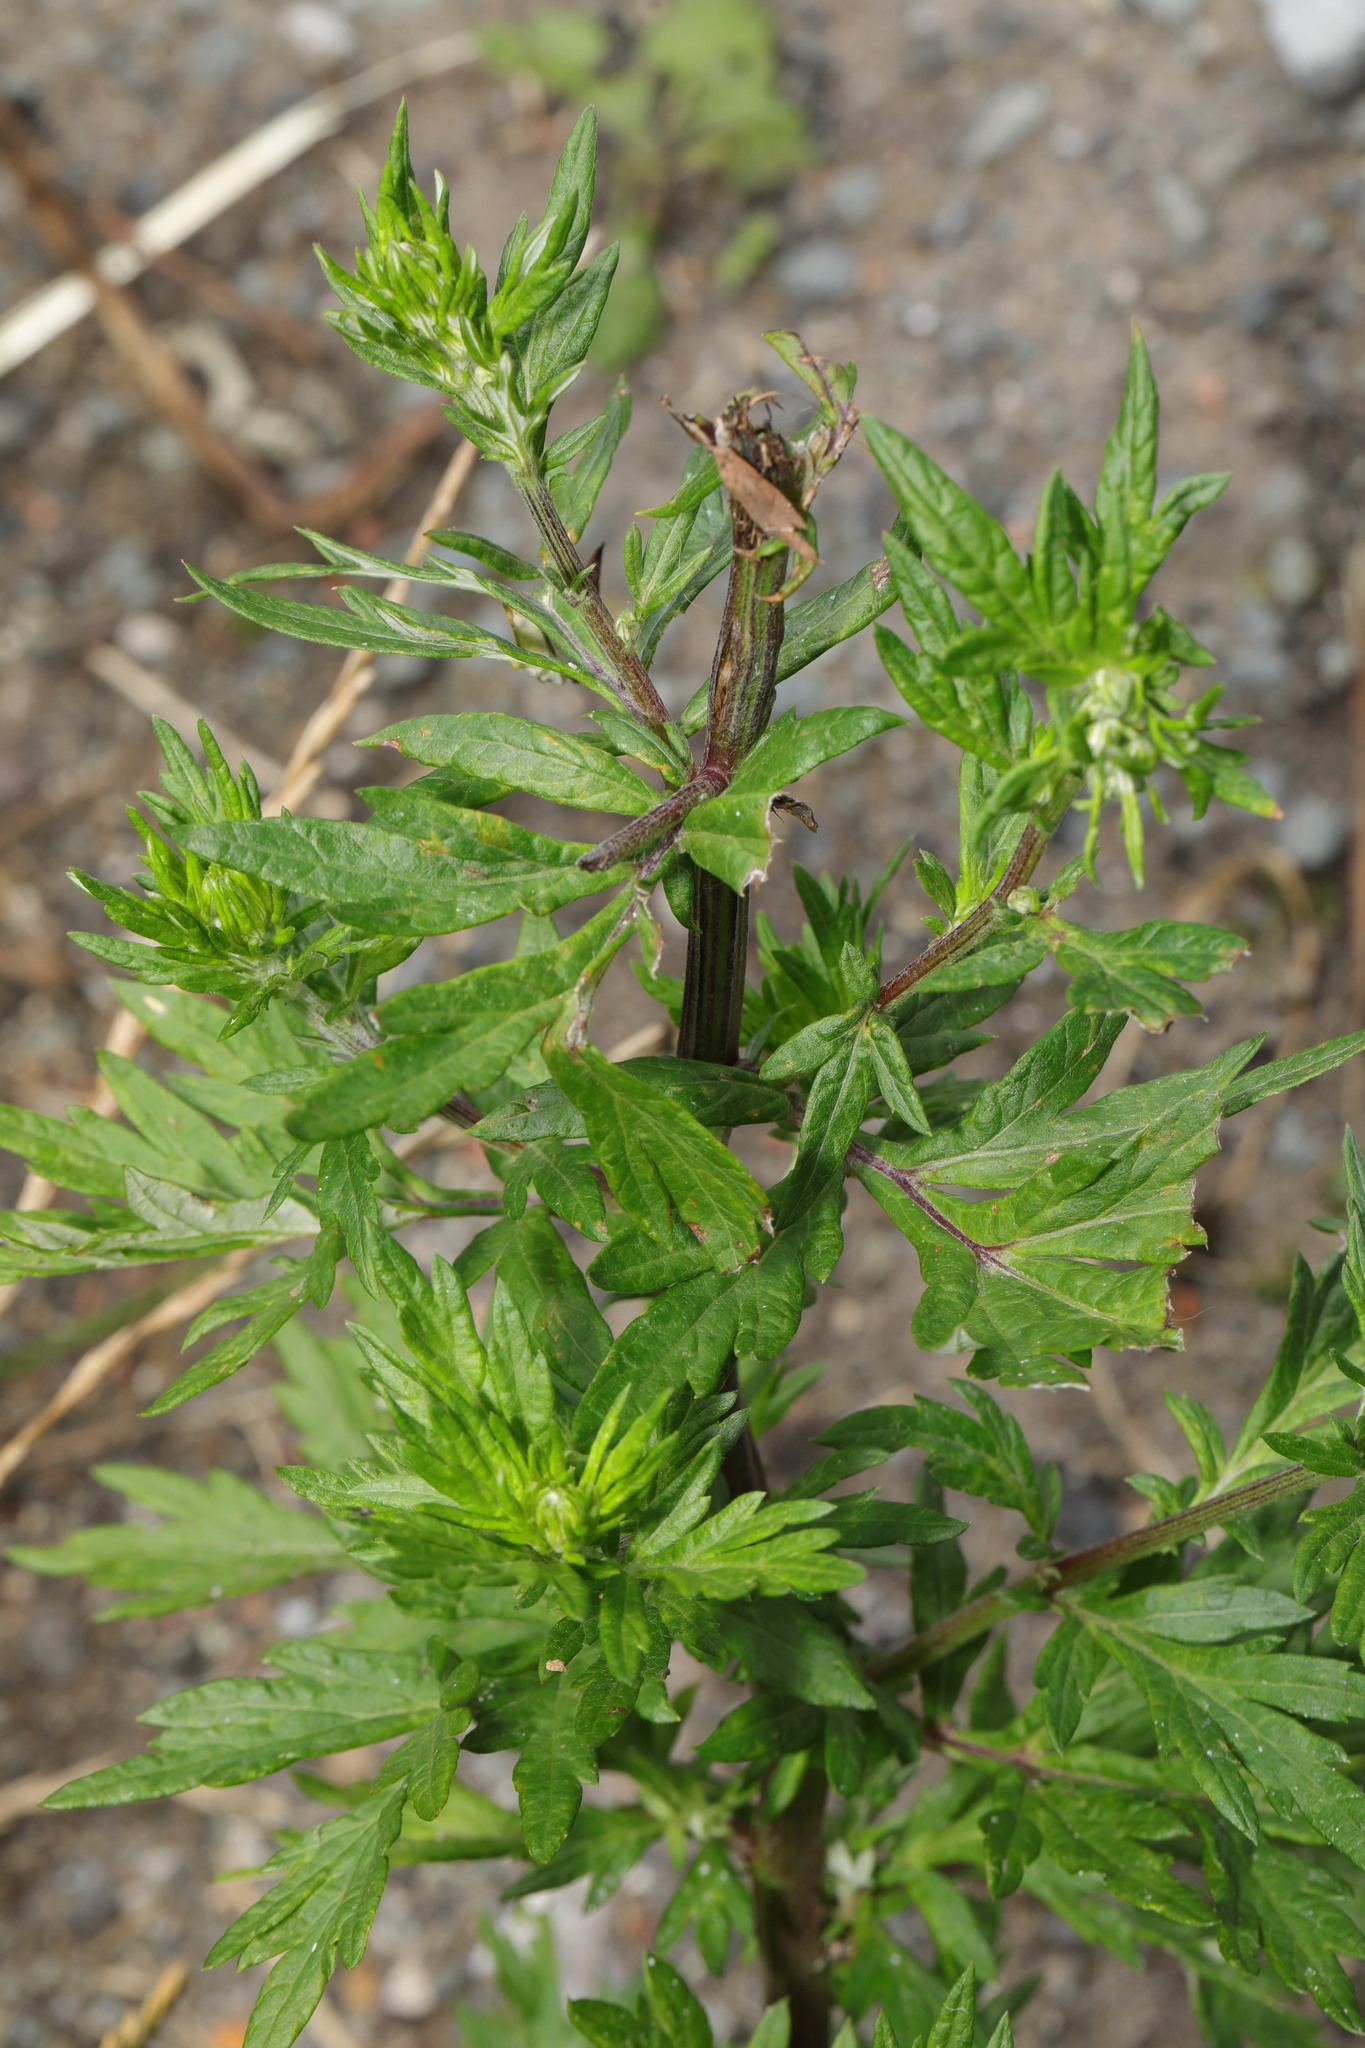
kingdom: Plantae
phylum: Tracheophyta
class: Magnoliopsida
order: Asterales
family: Asteraceae
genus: Artemisia
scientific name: Artemisia vulgaris
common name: Mugwort
